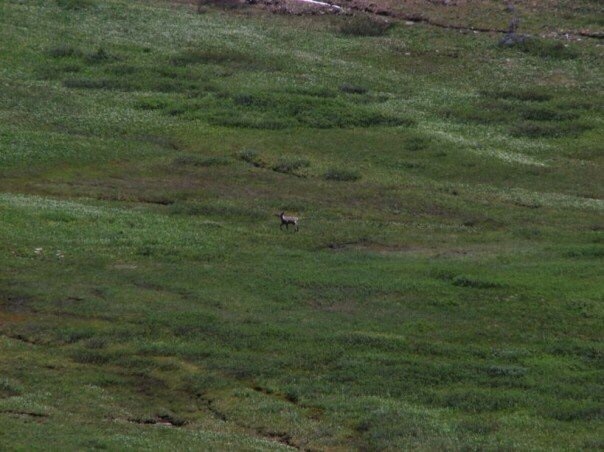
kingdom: Animalia
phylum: Chordata
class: Mammalia
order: Artiodactyla
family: Cervidae
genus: Rangifer
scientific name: Rangifer tarandus
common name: Reindeer
